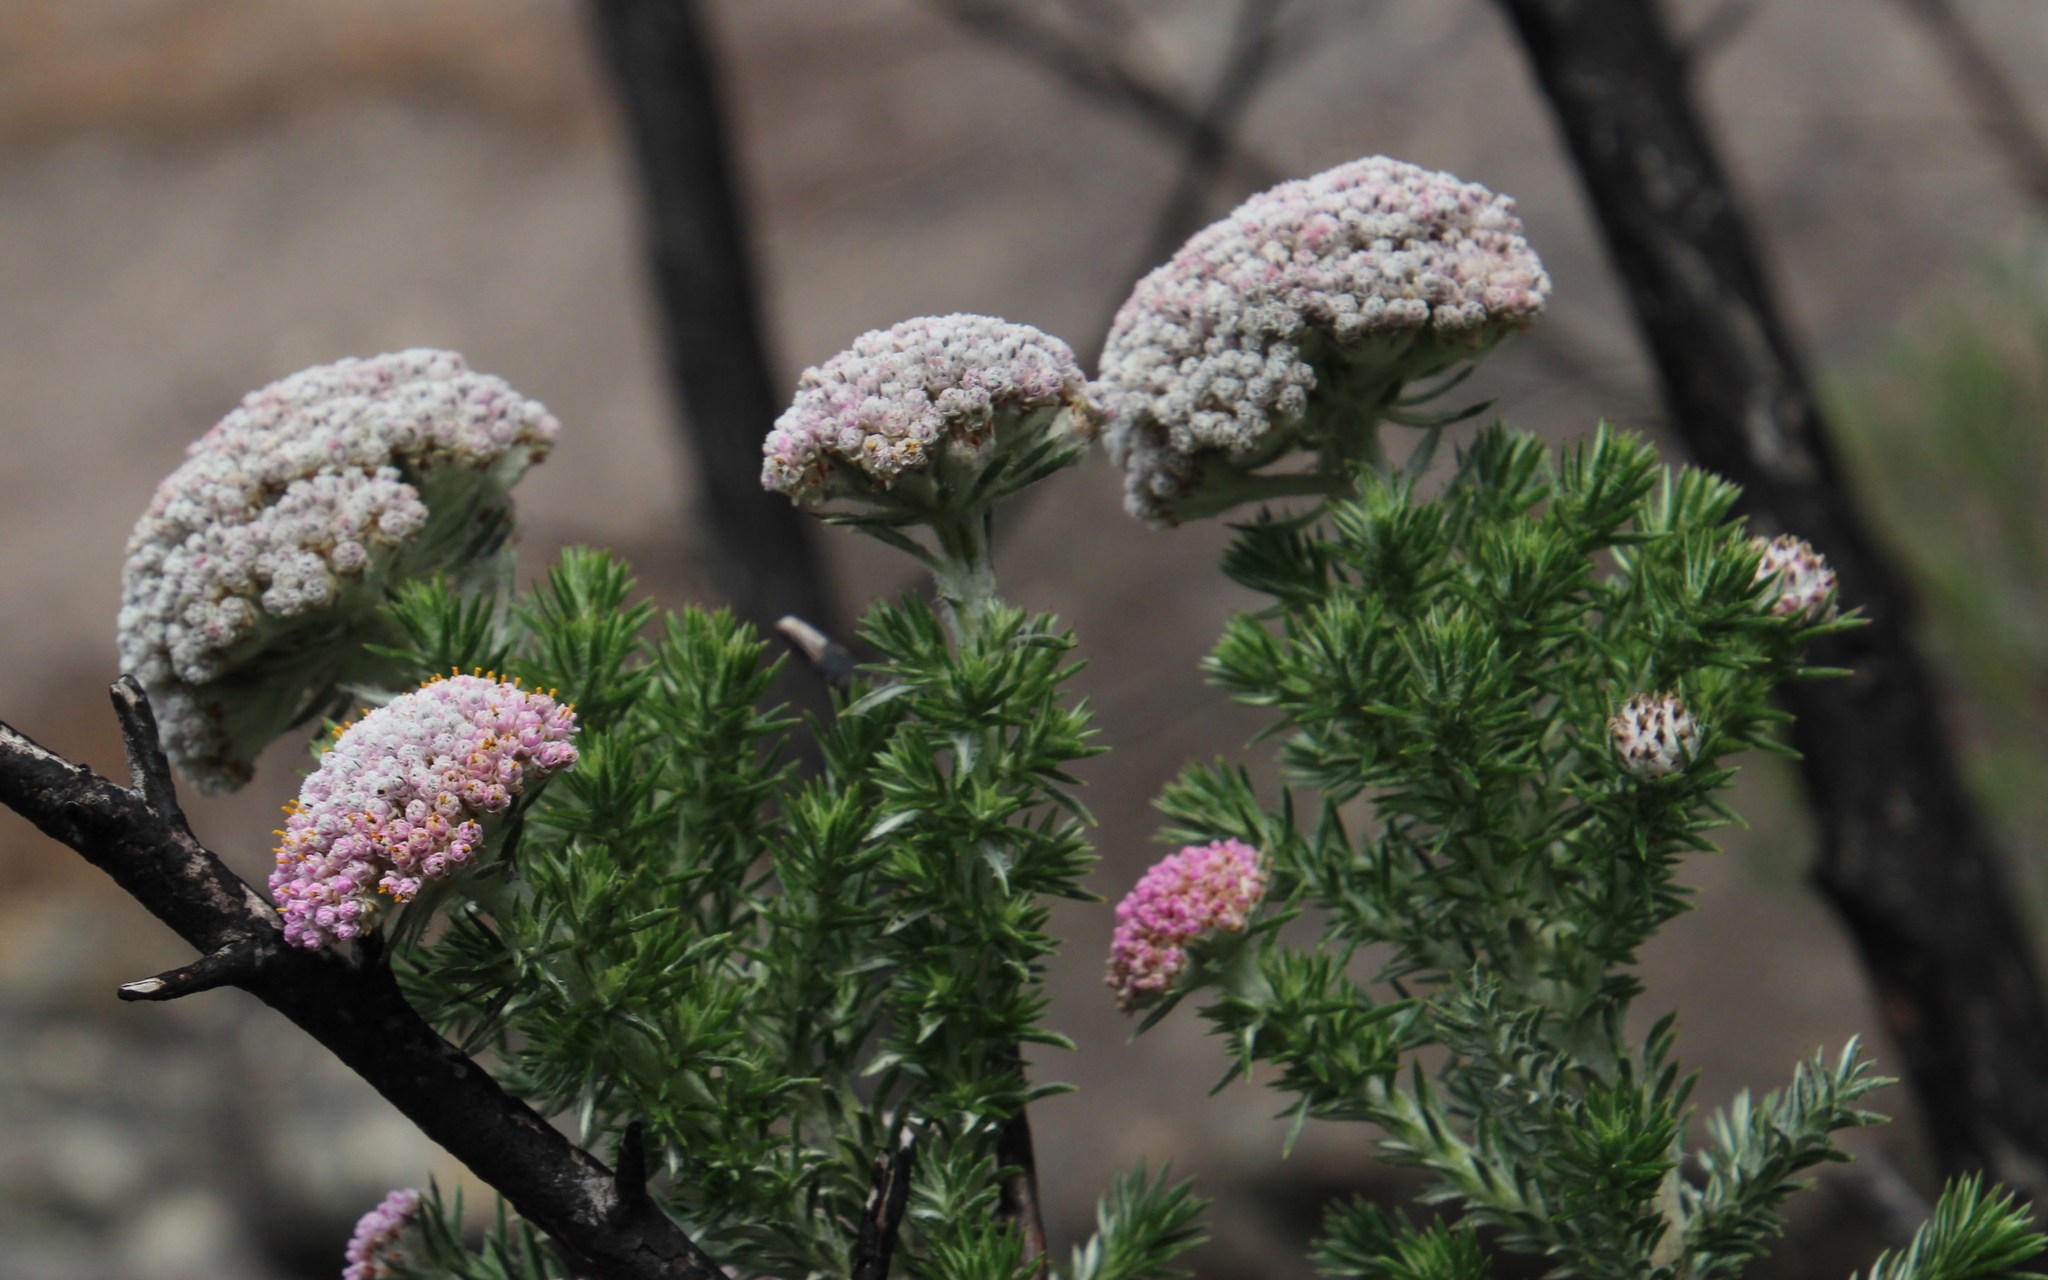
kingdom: Plantae
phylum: Tracheophyta
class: Magnoliopsida
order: Asterales
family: Asteraceae
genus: Metalasia
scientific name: Metalasia muraltiifolia
